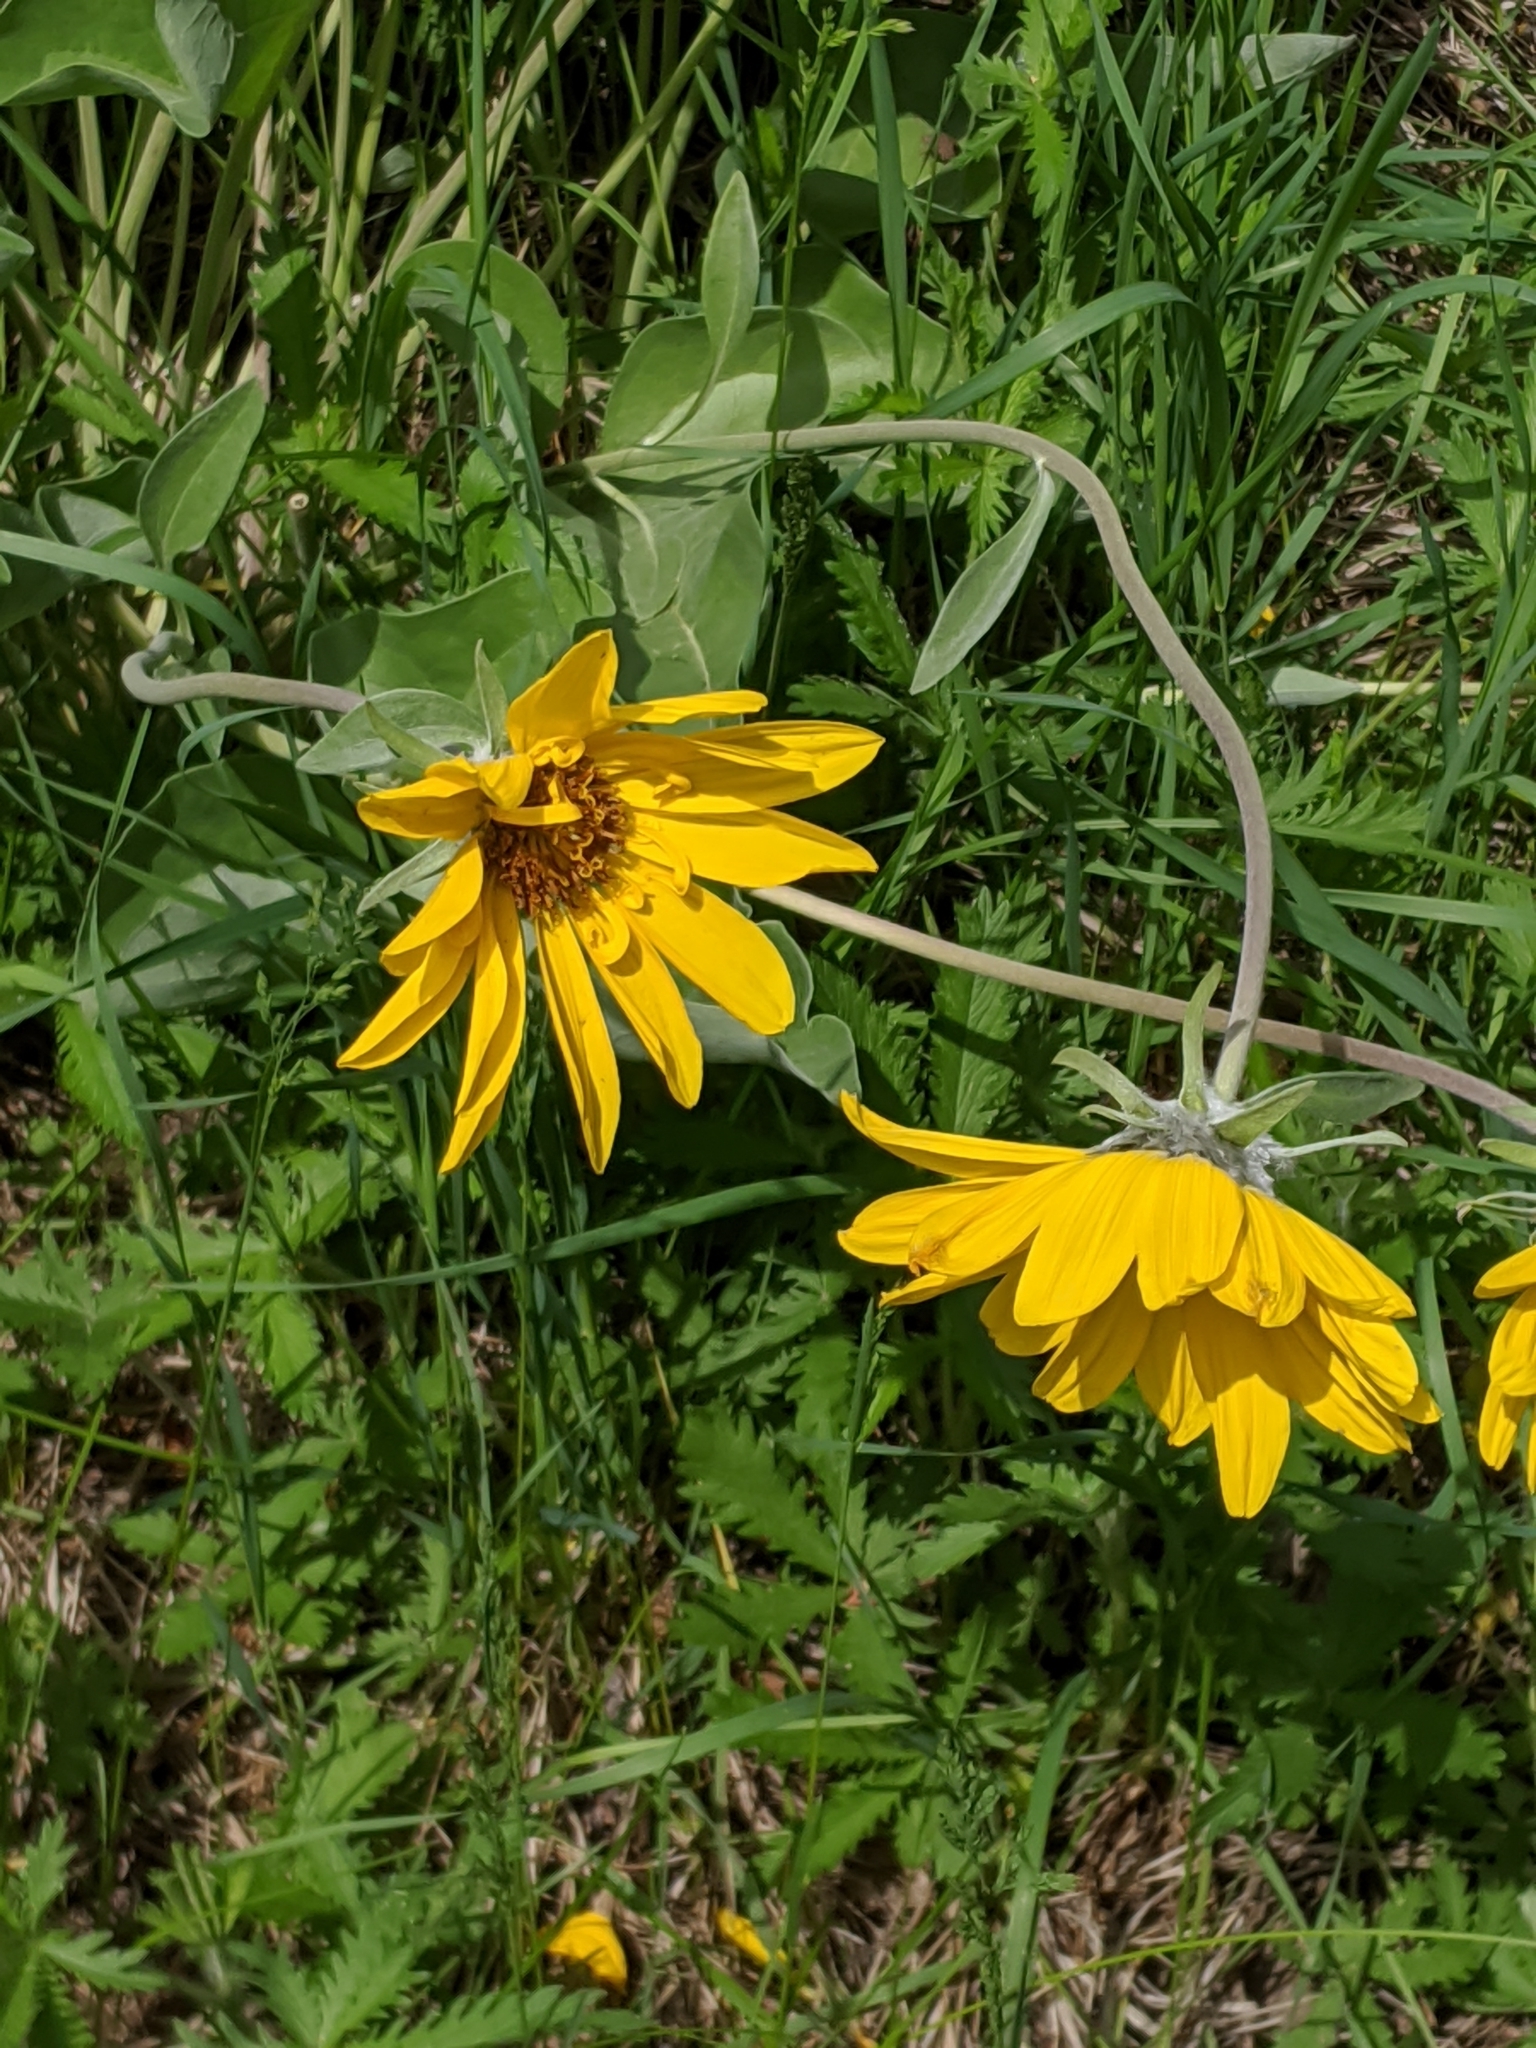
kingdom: Plantae
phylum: Tracheophyta
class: Magnoliopsida
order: Asterales
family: Asteraceae
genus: Wyethia
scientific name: Wyethia sagittata
